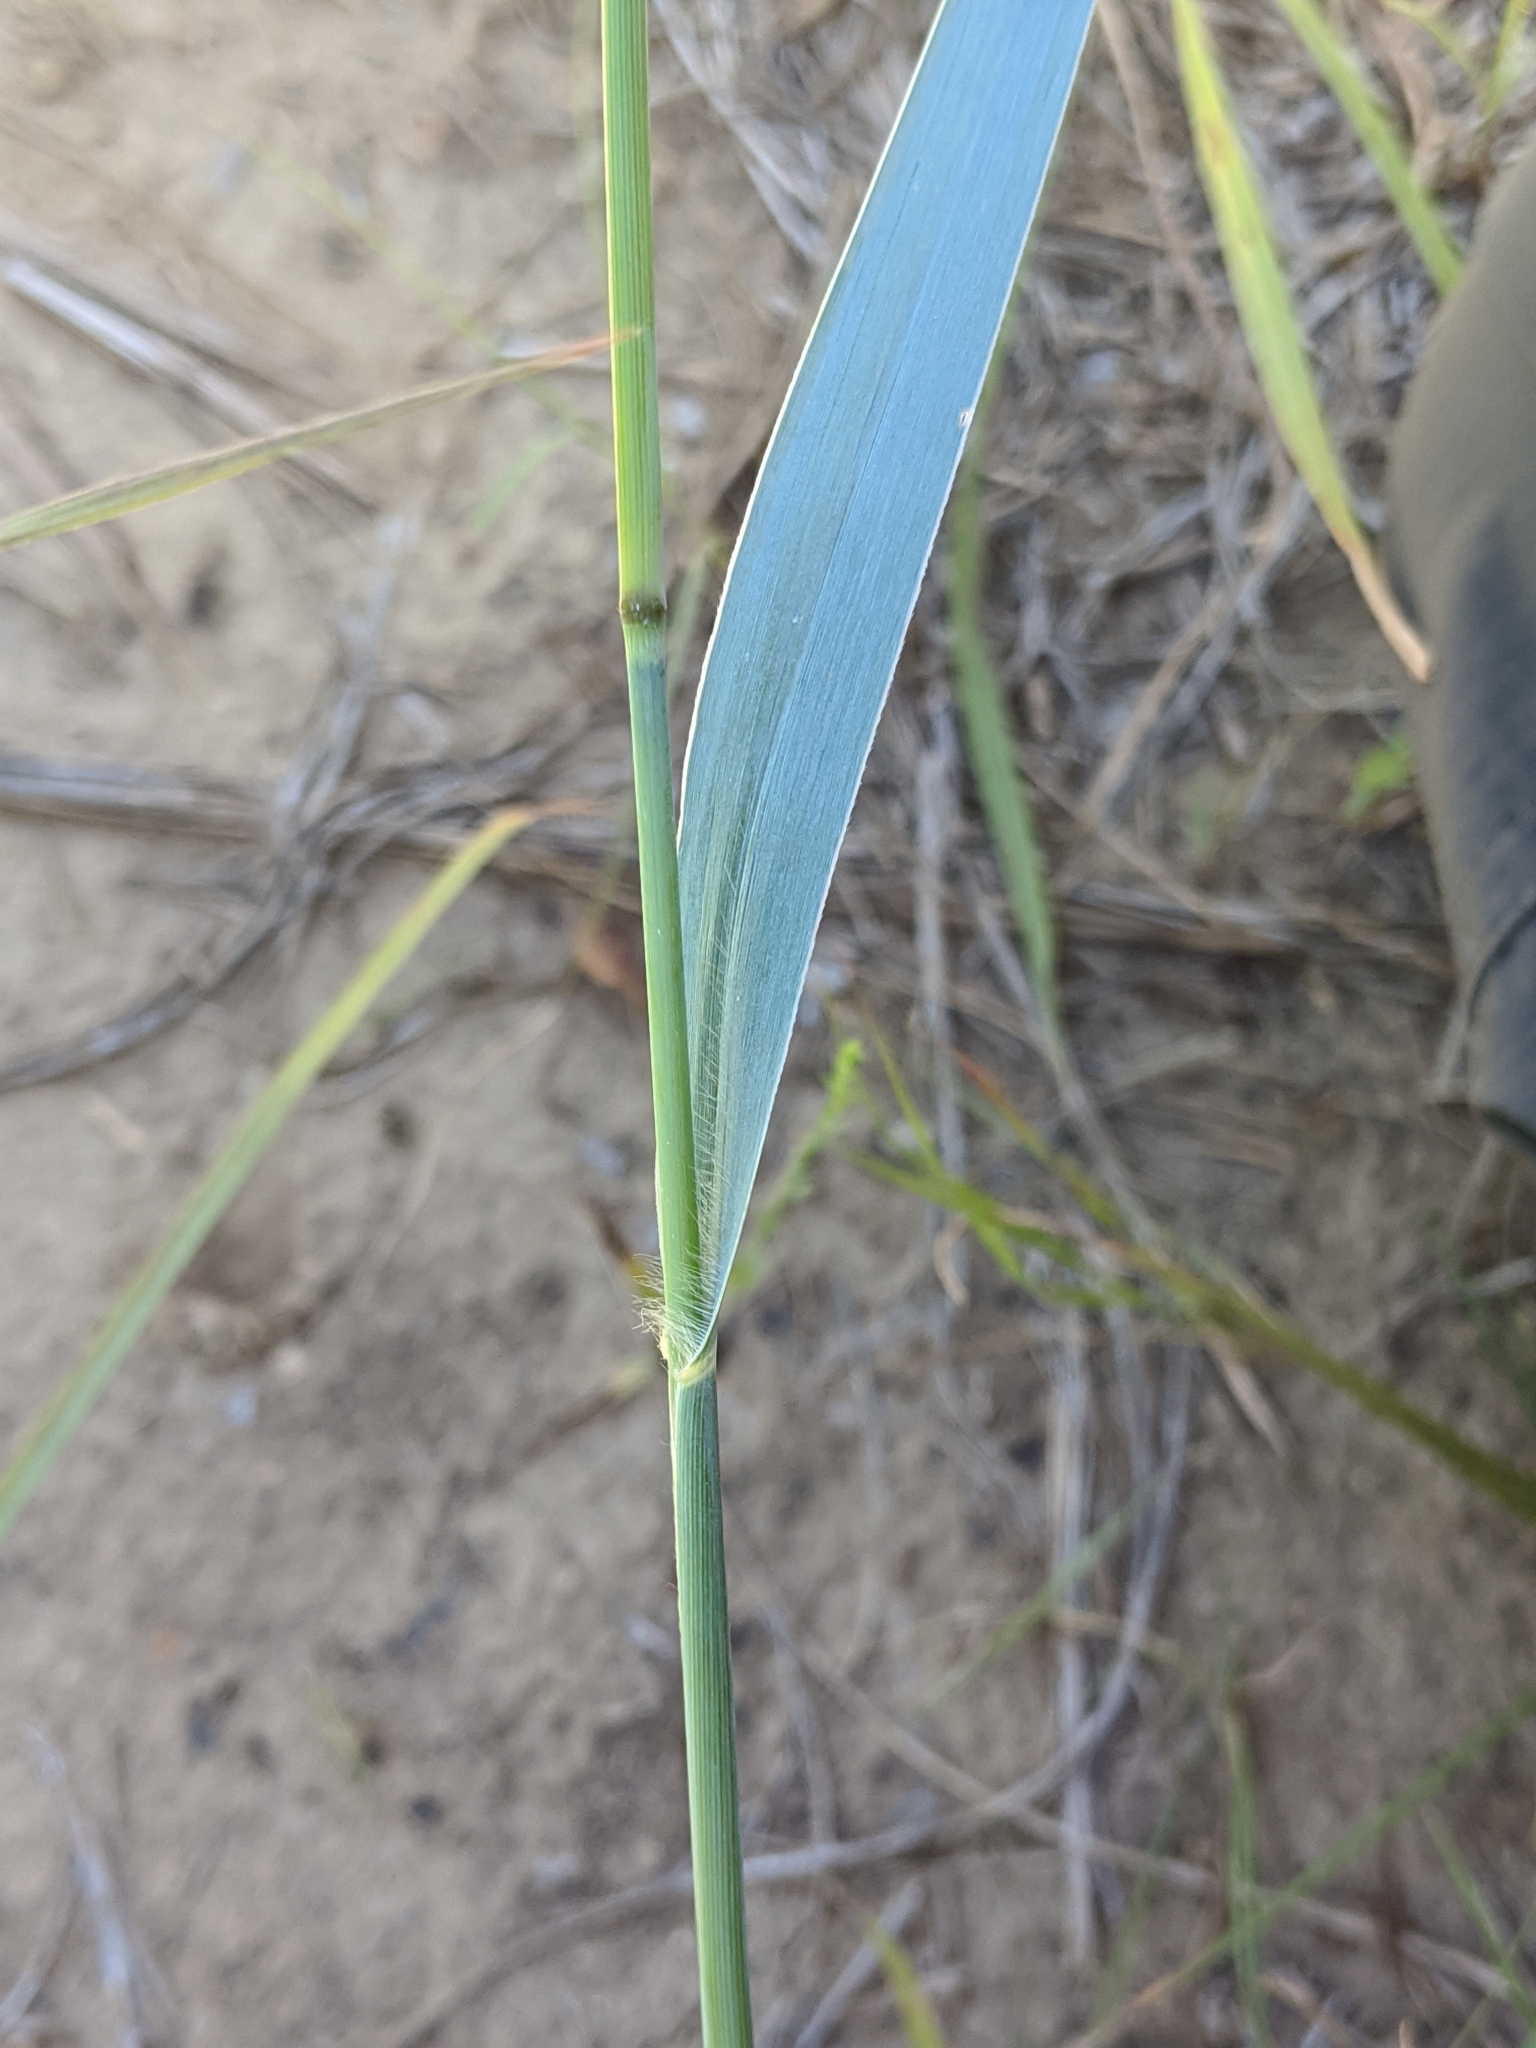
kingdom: Plantae
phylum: Tracheophyta
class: Liliopsida
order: Poales
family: Poaceae
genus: Panicum
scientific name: Panicum virgatum
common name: Switchgrass
